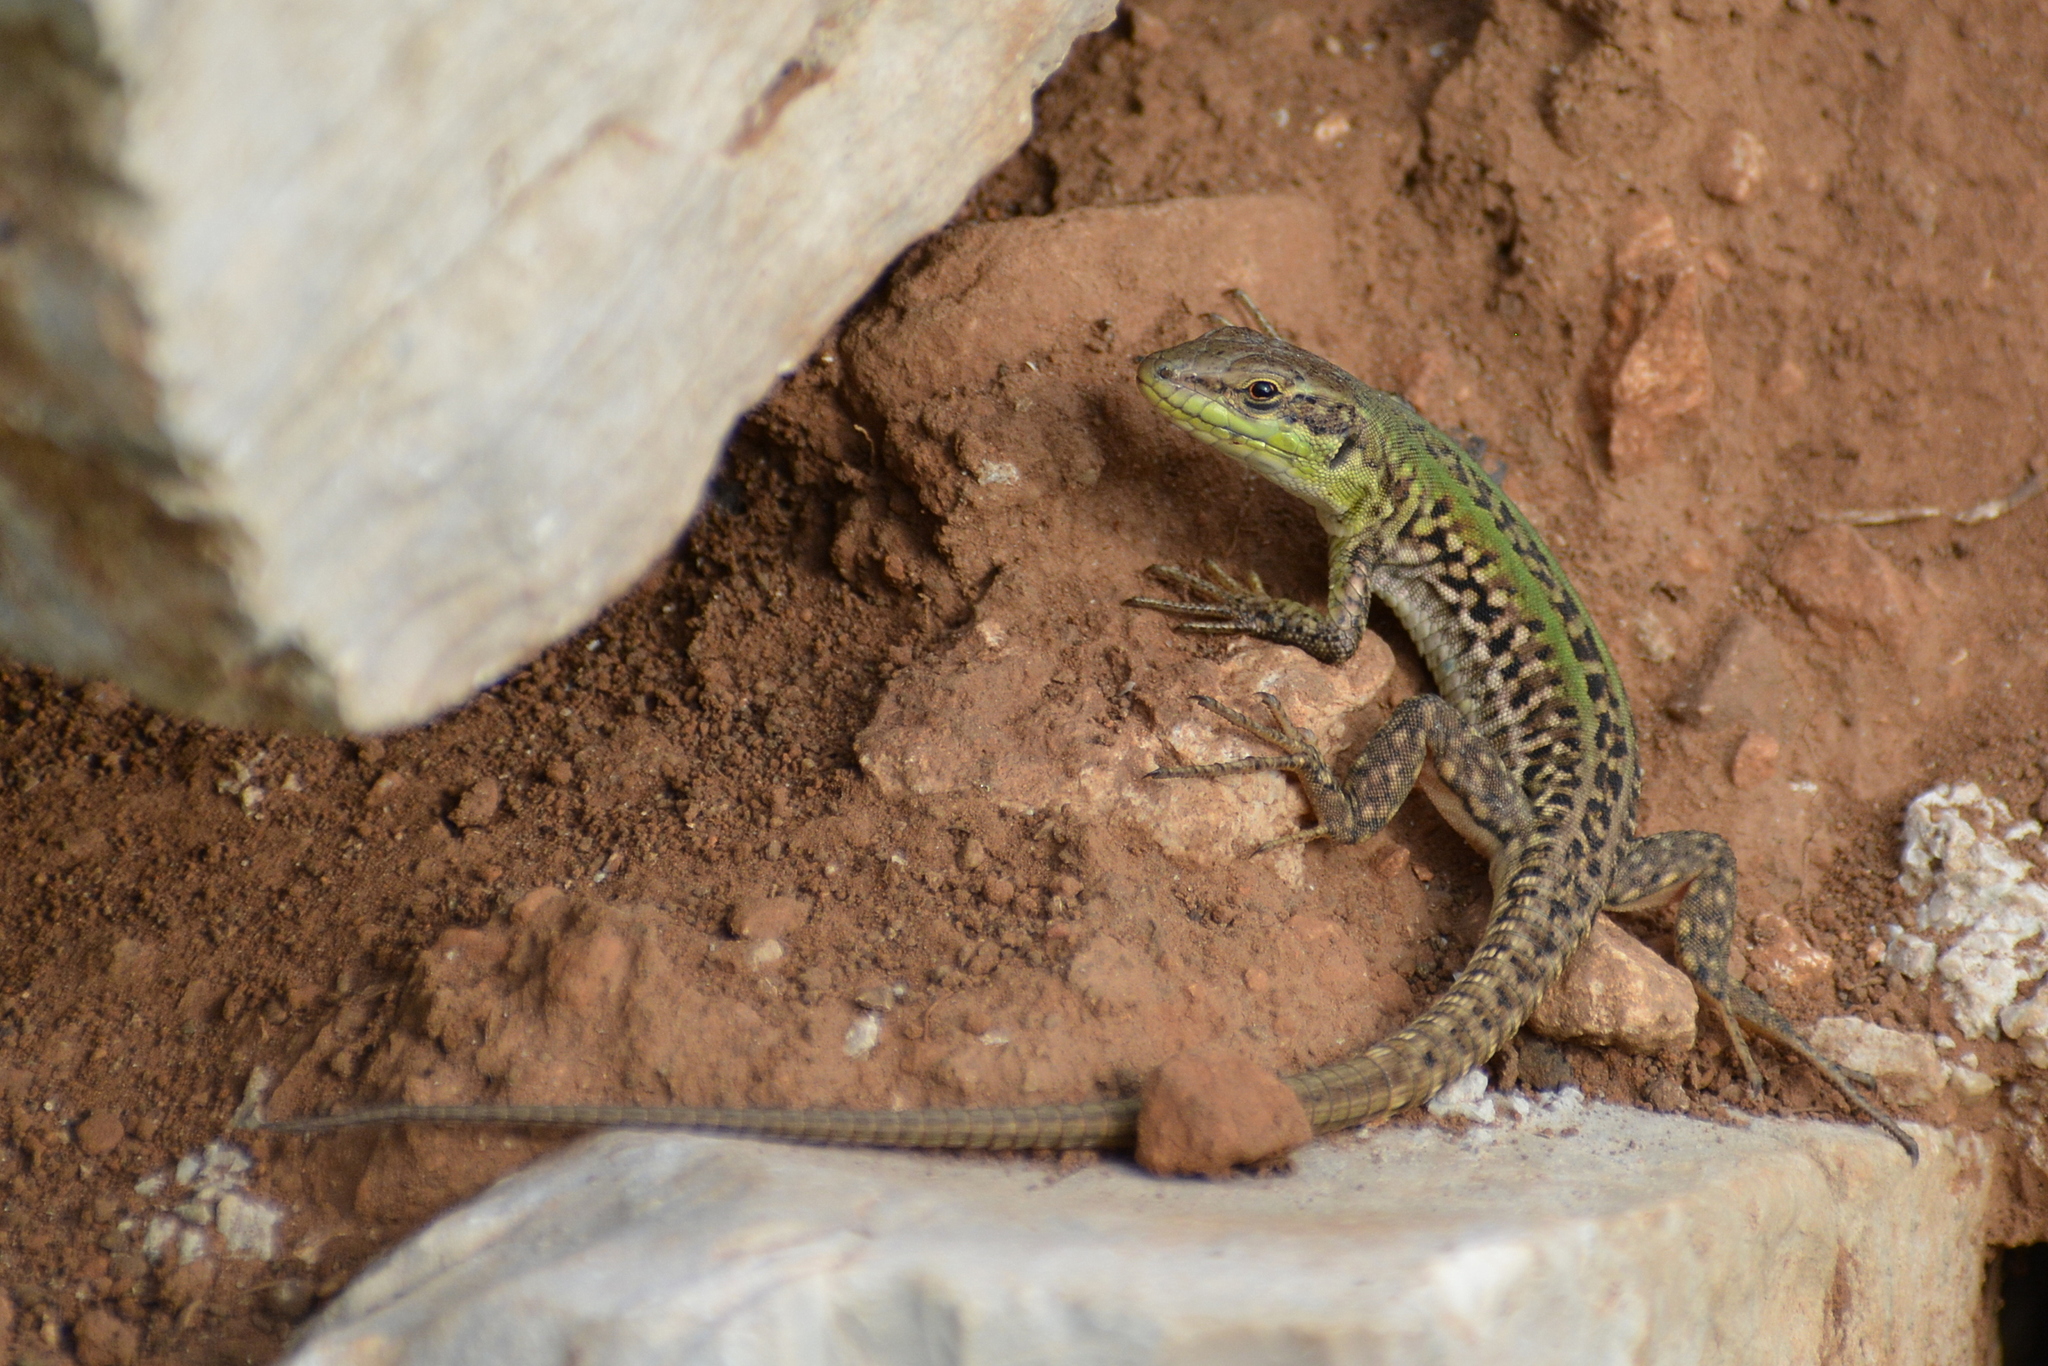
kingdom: Animalia
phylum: Chordata
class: Squamata
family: Lacertidae
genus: Podarcis
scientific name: Podarcis siculus
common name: Italian wall lizard
